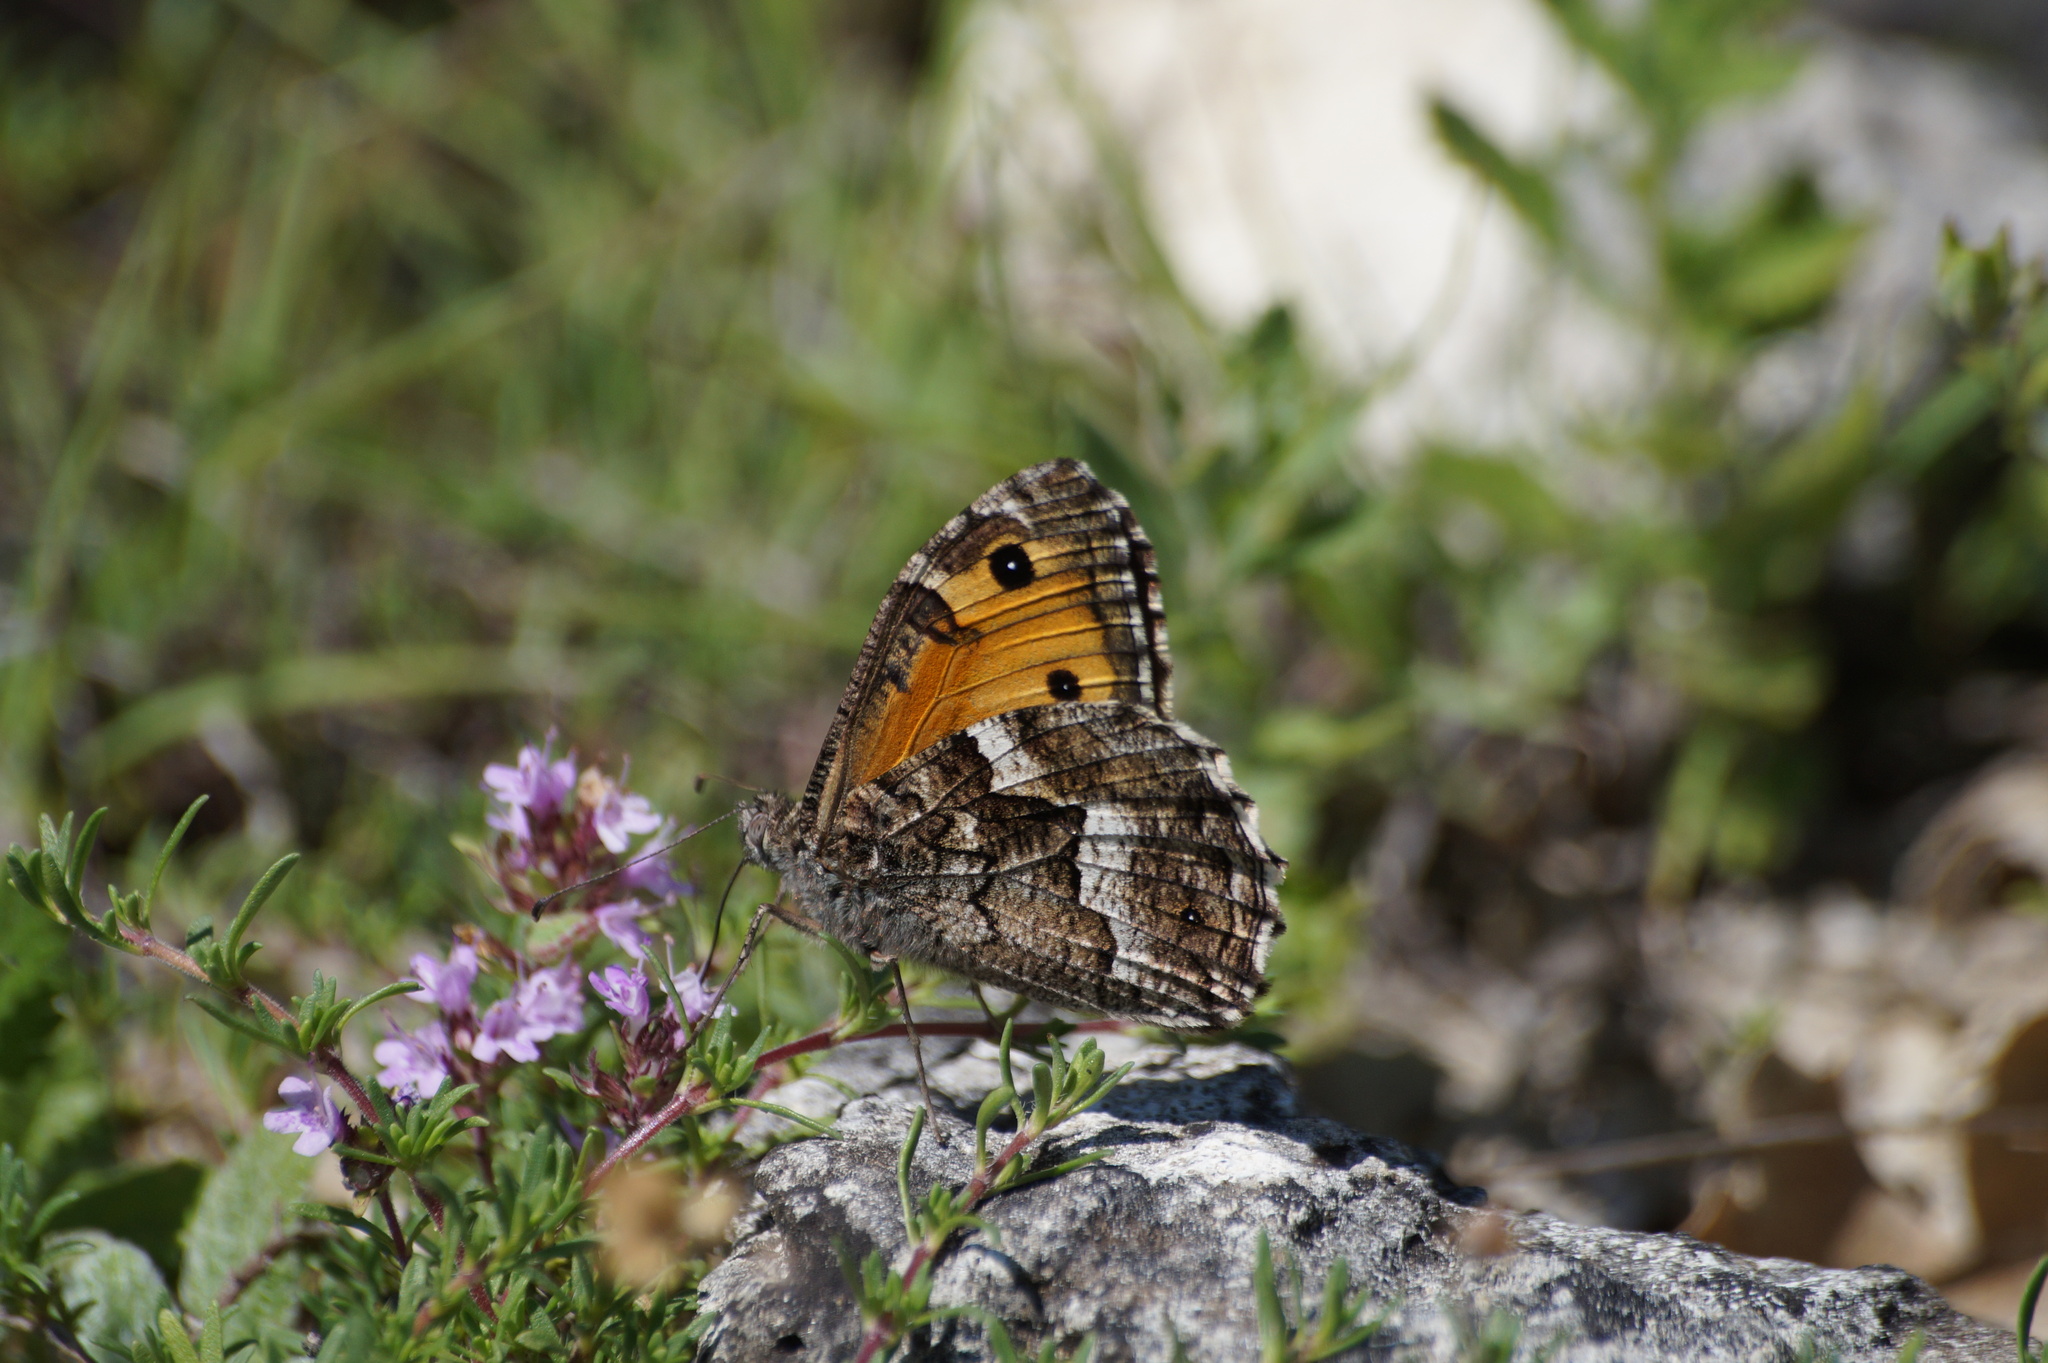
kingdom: Animalia
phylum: Arthropoda
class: Insecta
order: Lepidoptera
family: Nymphalidae
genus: Hipparchia
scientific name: Hipparchia pellucida
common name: Lesbos grayling
